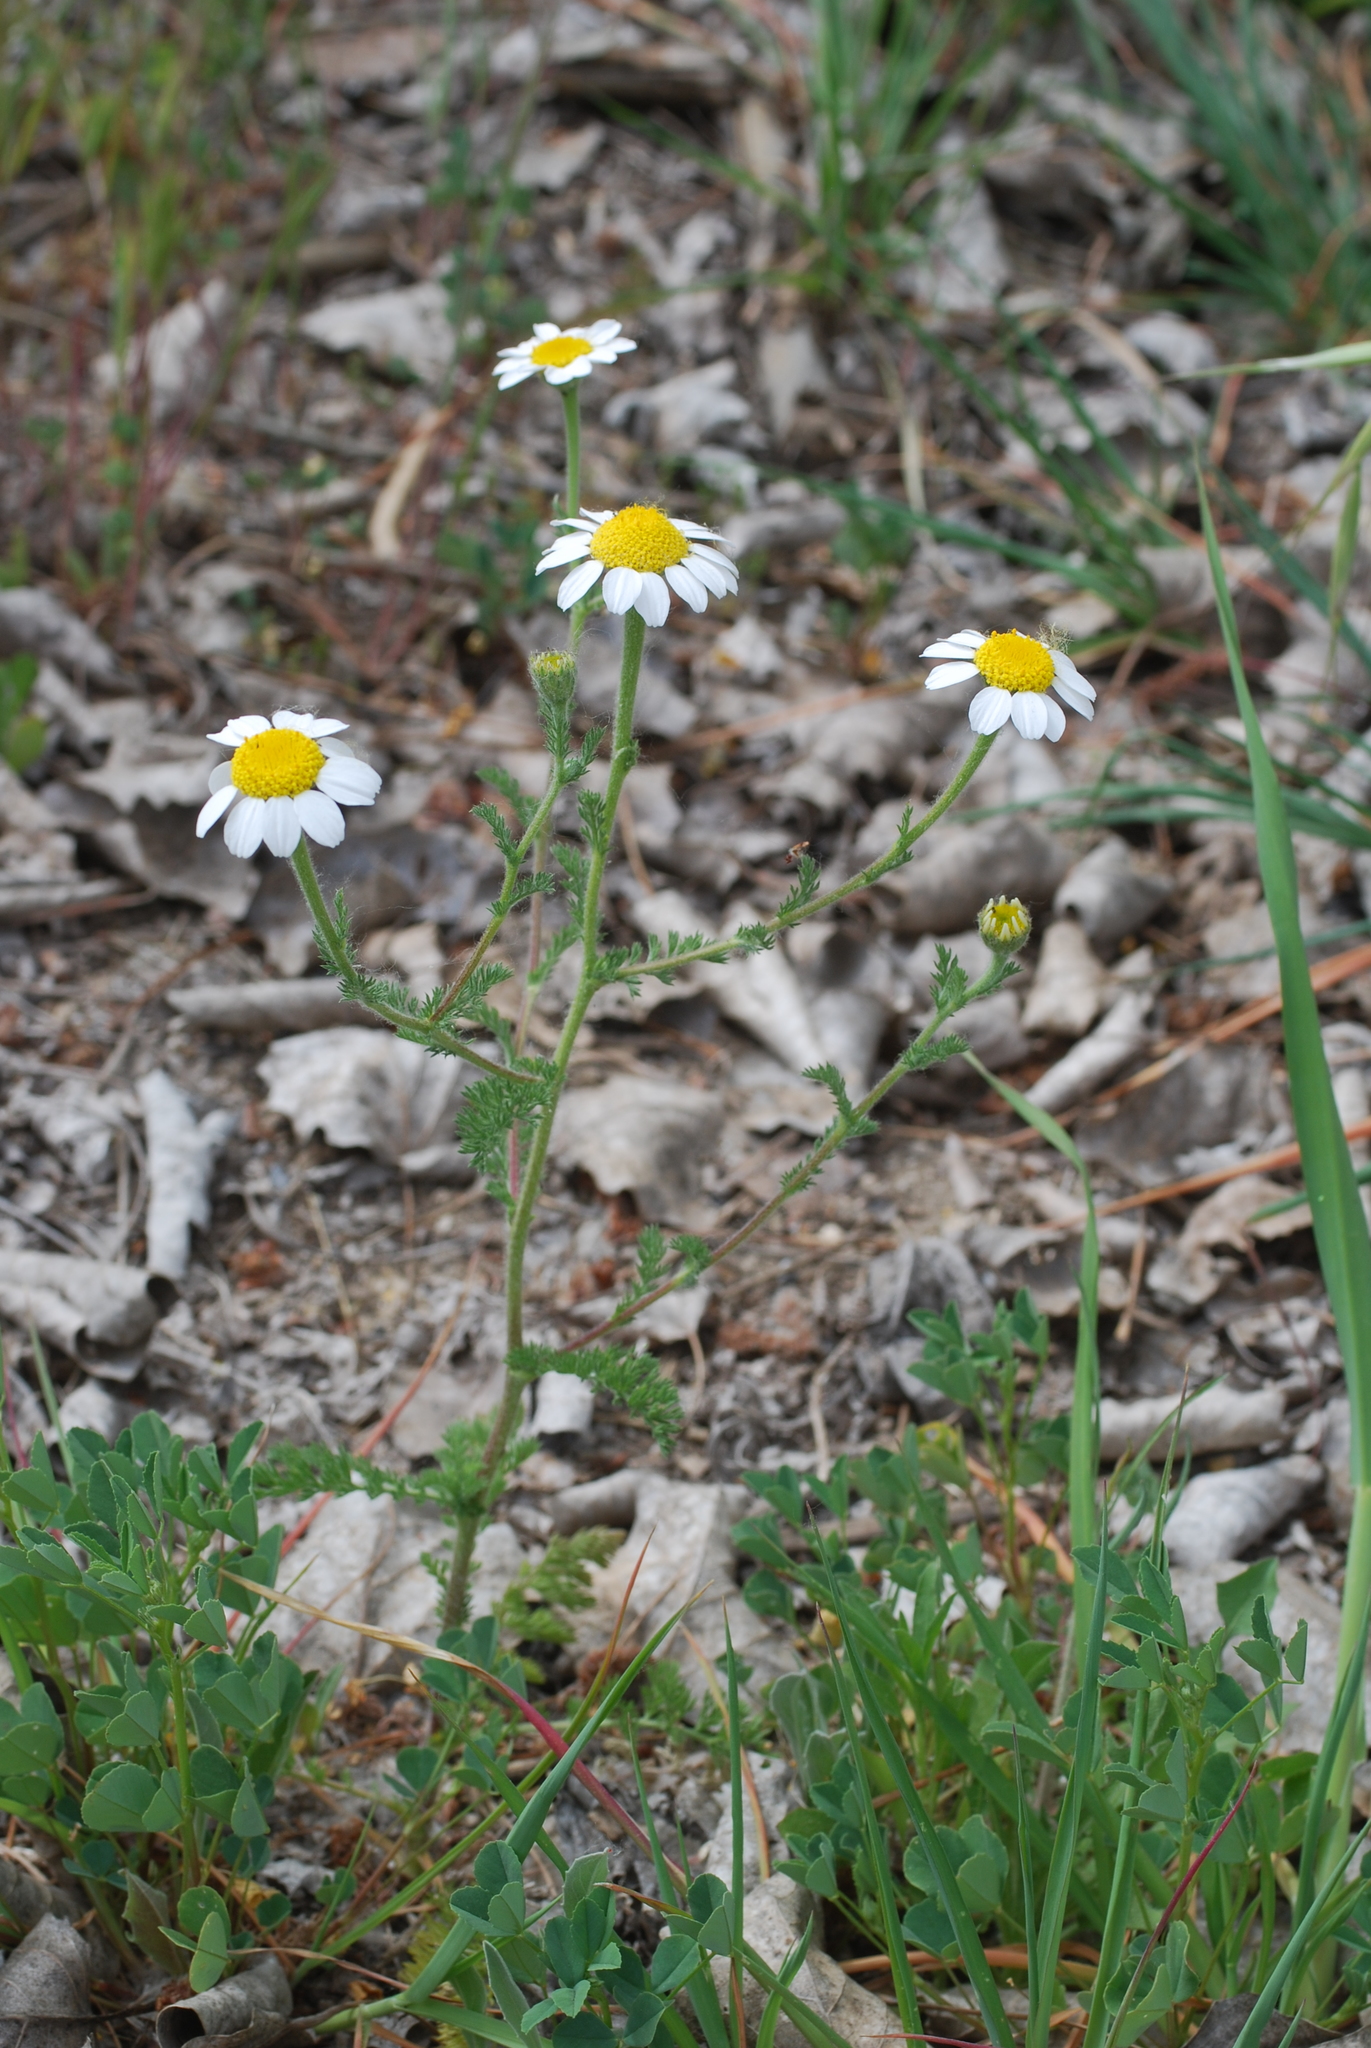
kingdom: Plantae
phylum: Tracheophyta
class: Magnoliopsida
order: Asterales
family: Asteraceae
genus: Anacyclus
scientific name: Anacyclus clavatus
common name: Whitebuttons
